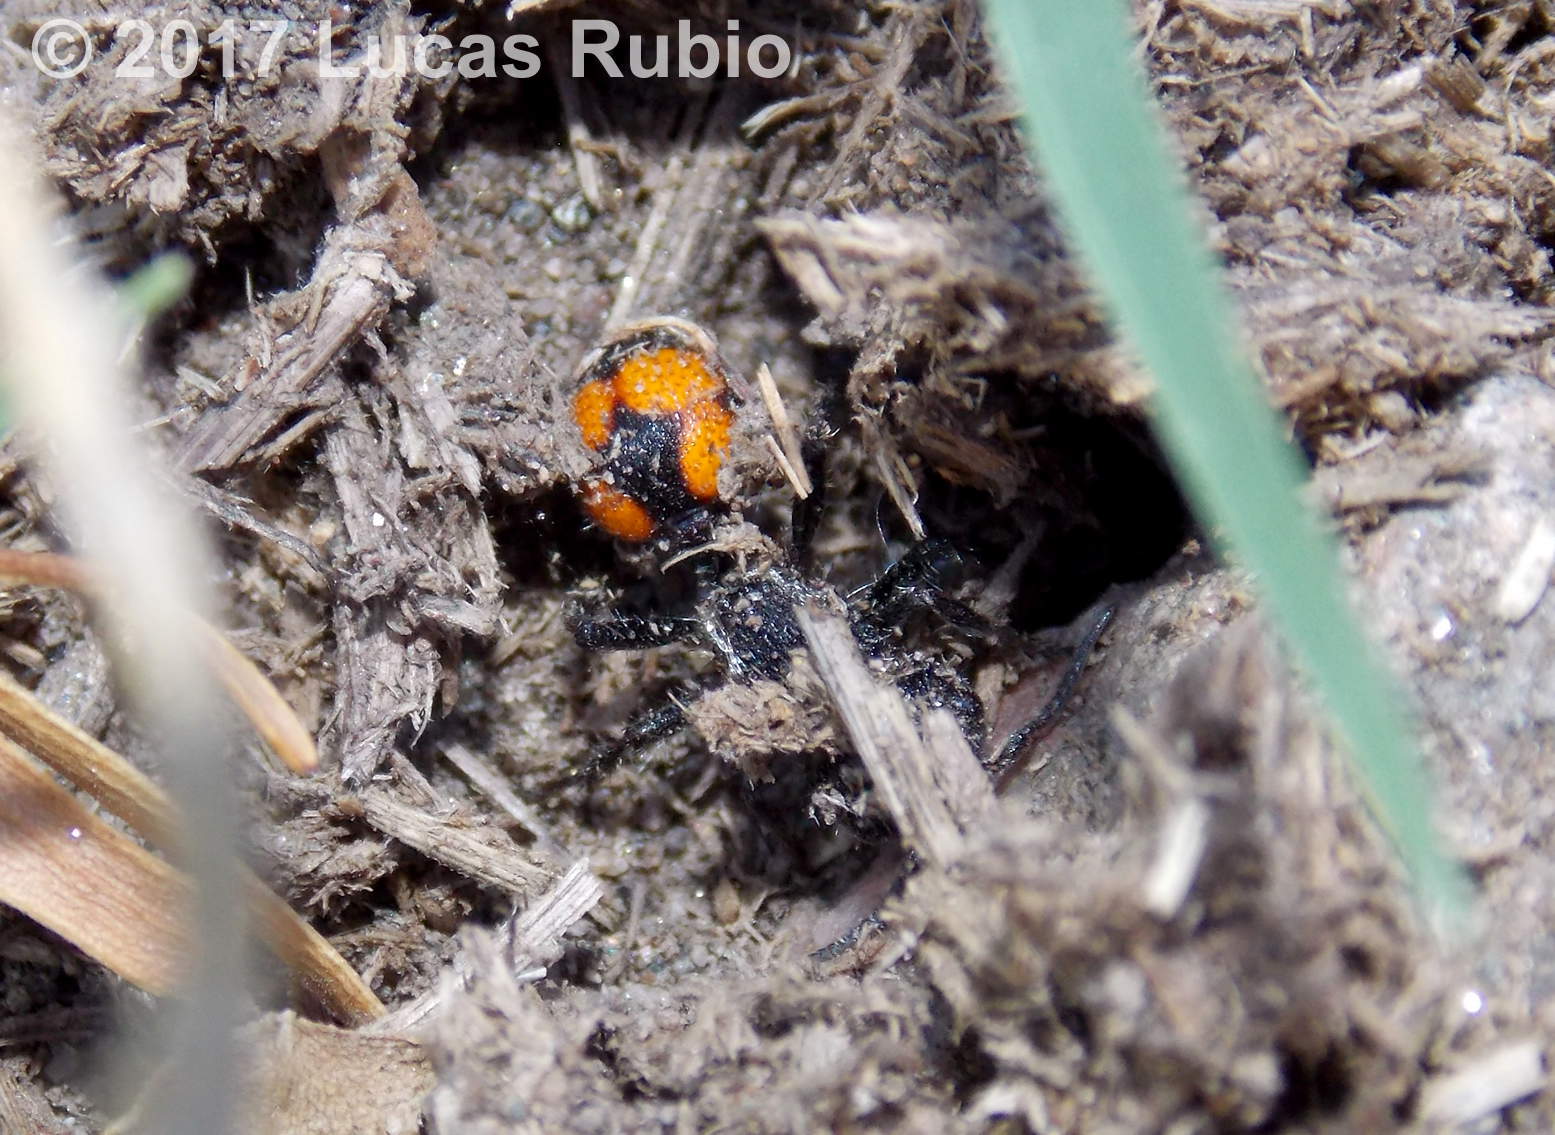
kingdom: Animalia
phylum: Arthropoda
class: Insecta
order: Hymenoptera
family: Mutillidae
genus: Traumatomutilla
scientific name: Traumatomutilla
